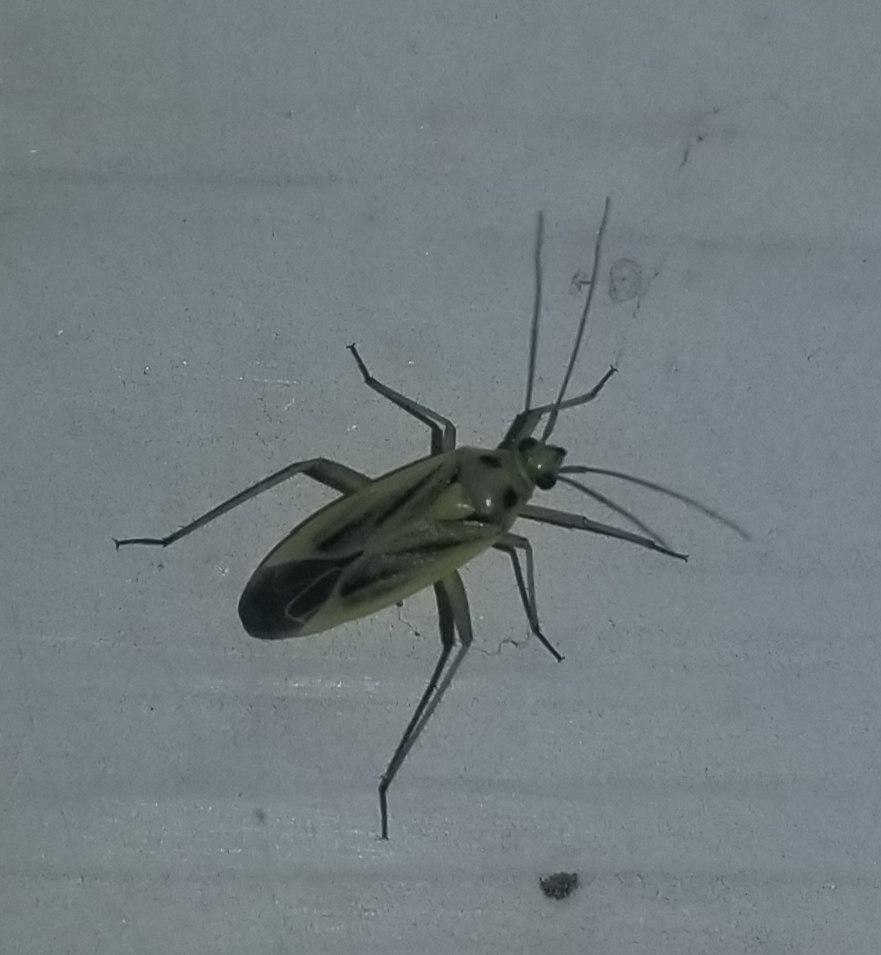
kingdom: Animalia
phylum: Arthropoda
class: Insecta
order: Hemiptera
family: Miridae
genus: Stenotus
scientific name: Stenotus binotatus
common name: Plant bug
